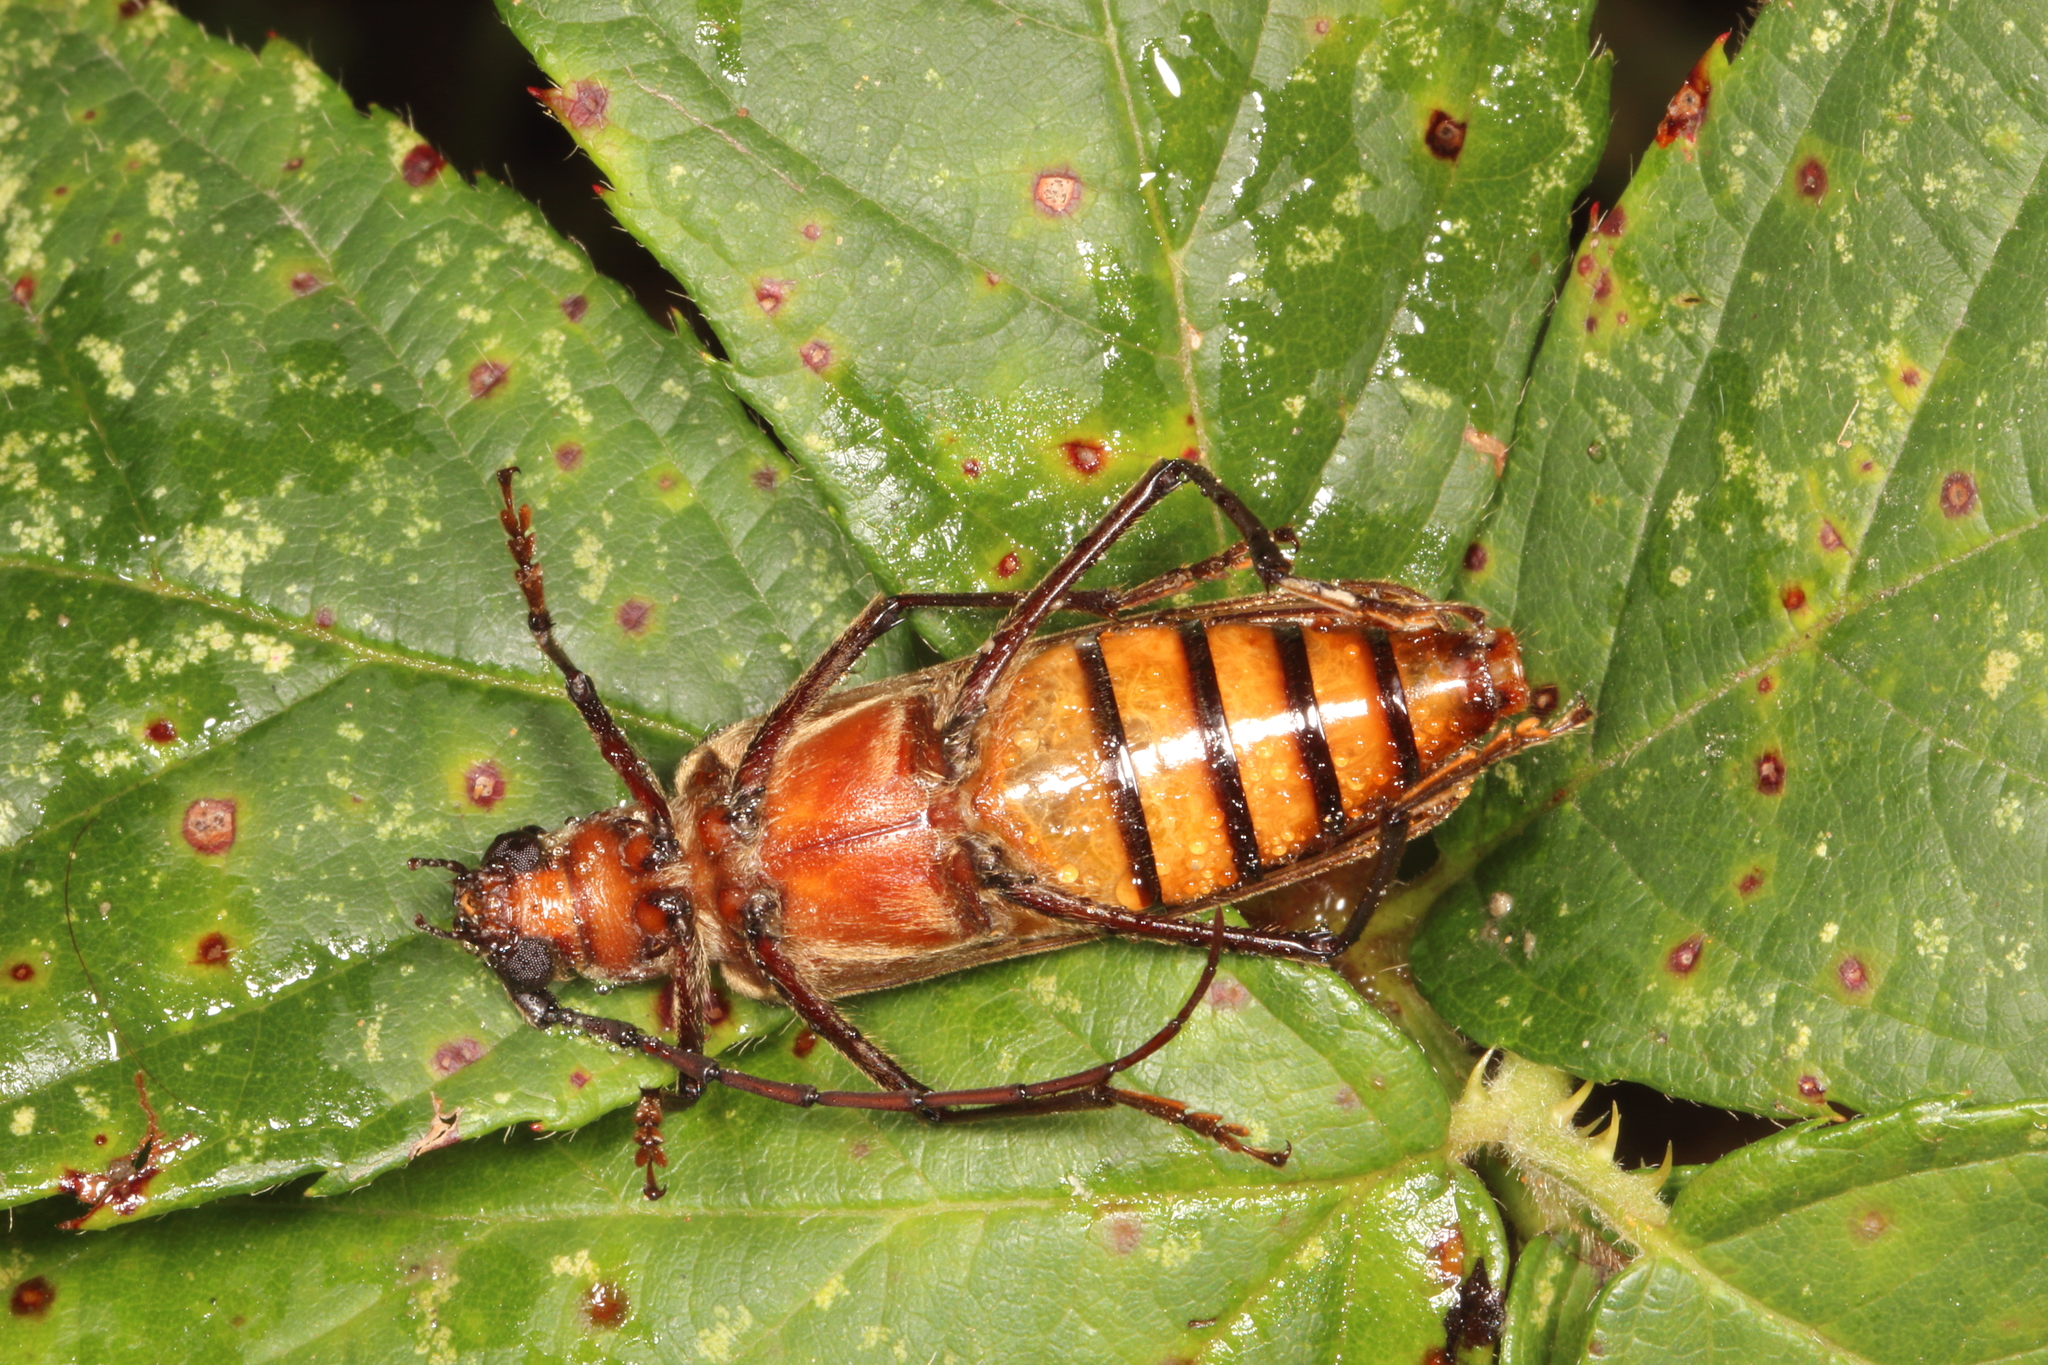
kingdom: Animalia
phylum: Arthropoda
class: Insecta
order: Coleoptera
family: Cerambycidae
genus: Ochrocydus
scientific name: Ochrocydus huttoni
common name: Kanuka longhorn
